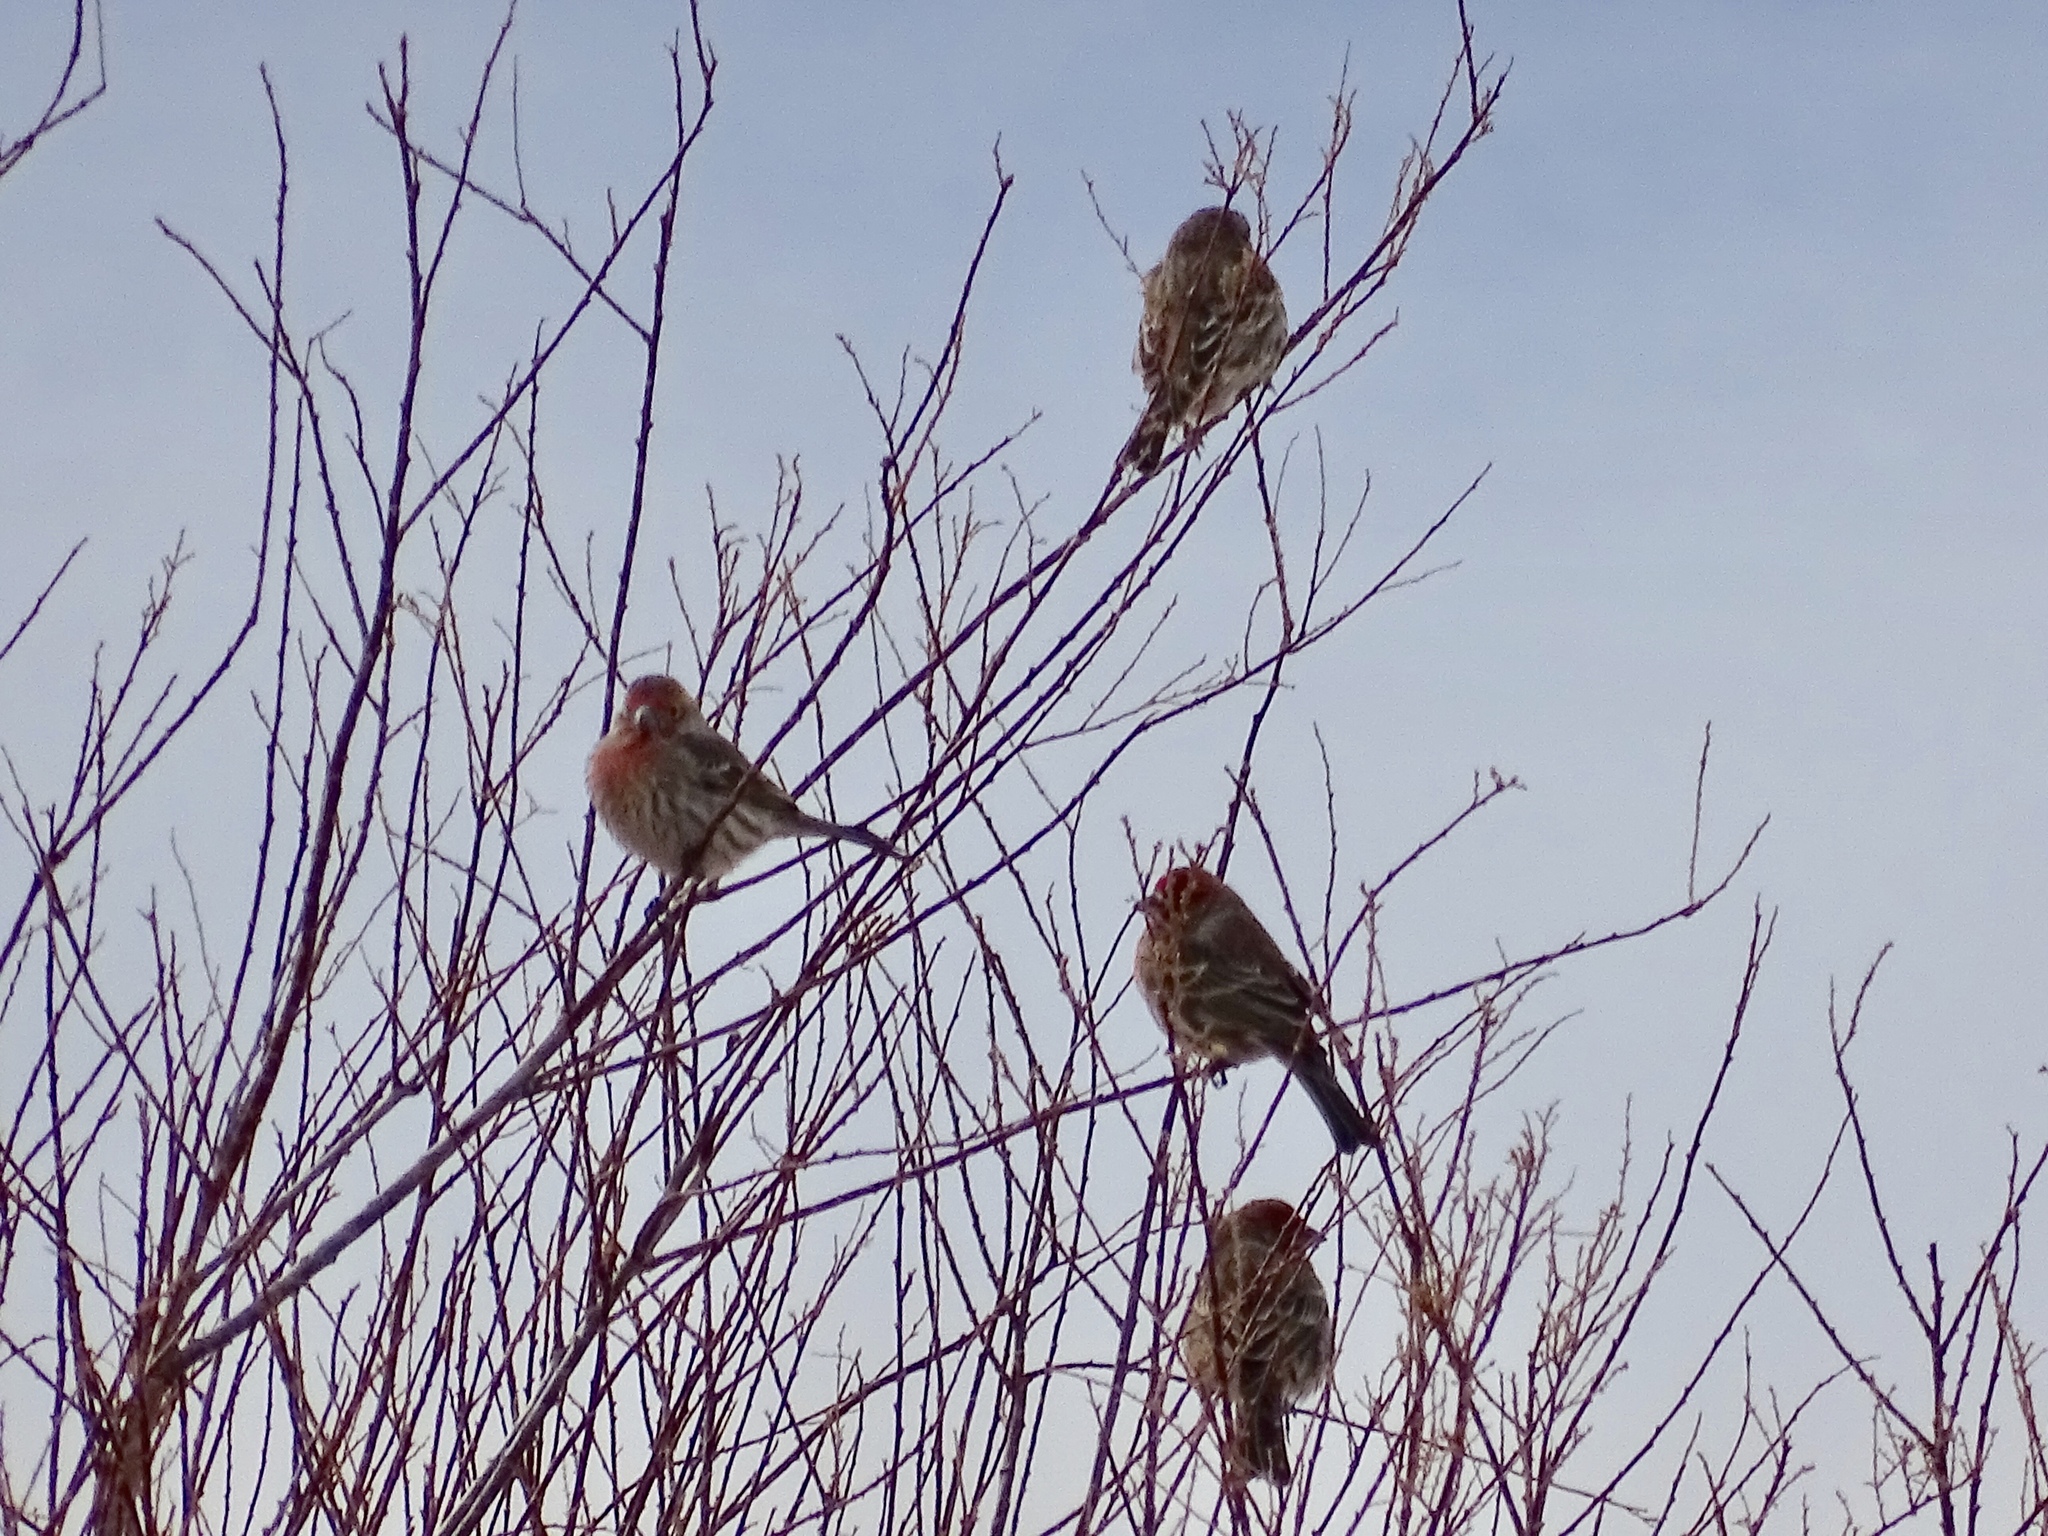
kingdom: Animalia
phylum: Chordata
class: Aves
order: Passeriformes
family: Fringillidae
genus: Haemorhous
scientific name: Haemorhous mexicanus
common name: House finch
